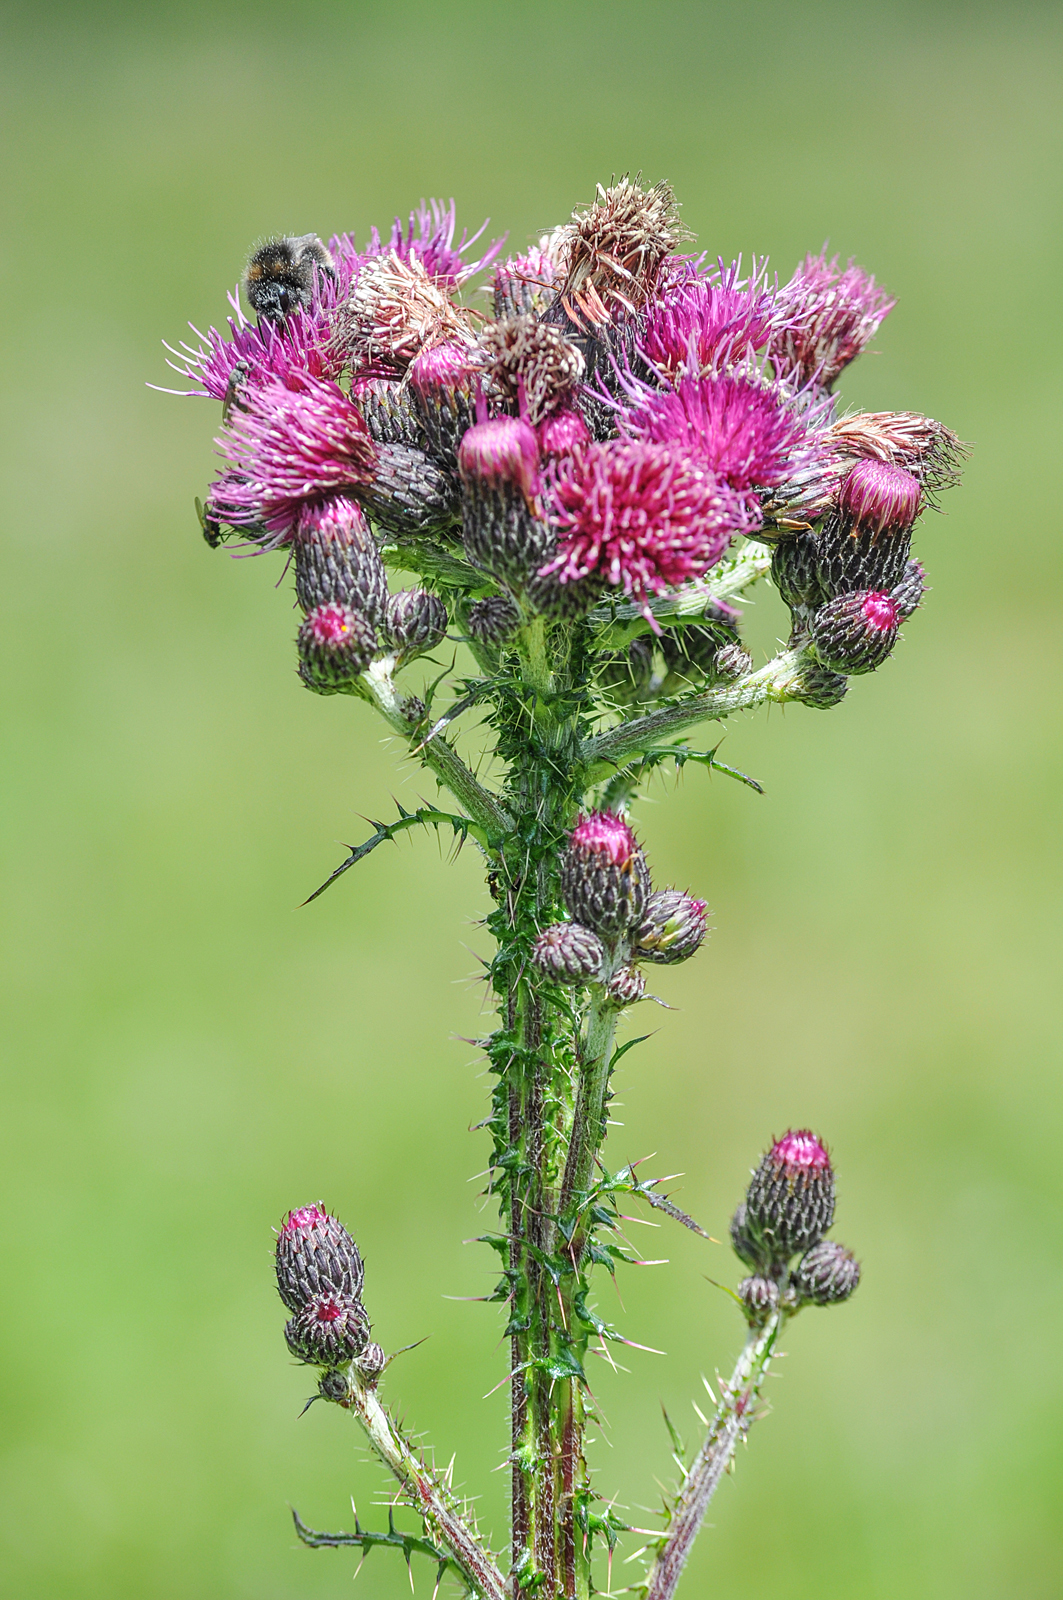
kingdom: Plantae
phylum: Tracheophyta
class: Magnoliopsida
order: Asterales
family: Asteraceae
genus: Cirsium
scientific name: Cirsium palustre
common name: Marsh thistle
